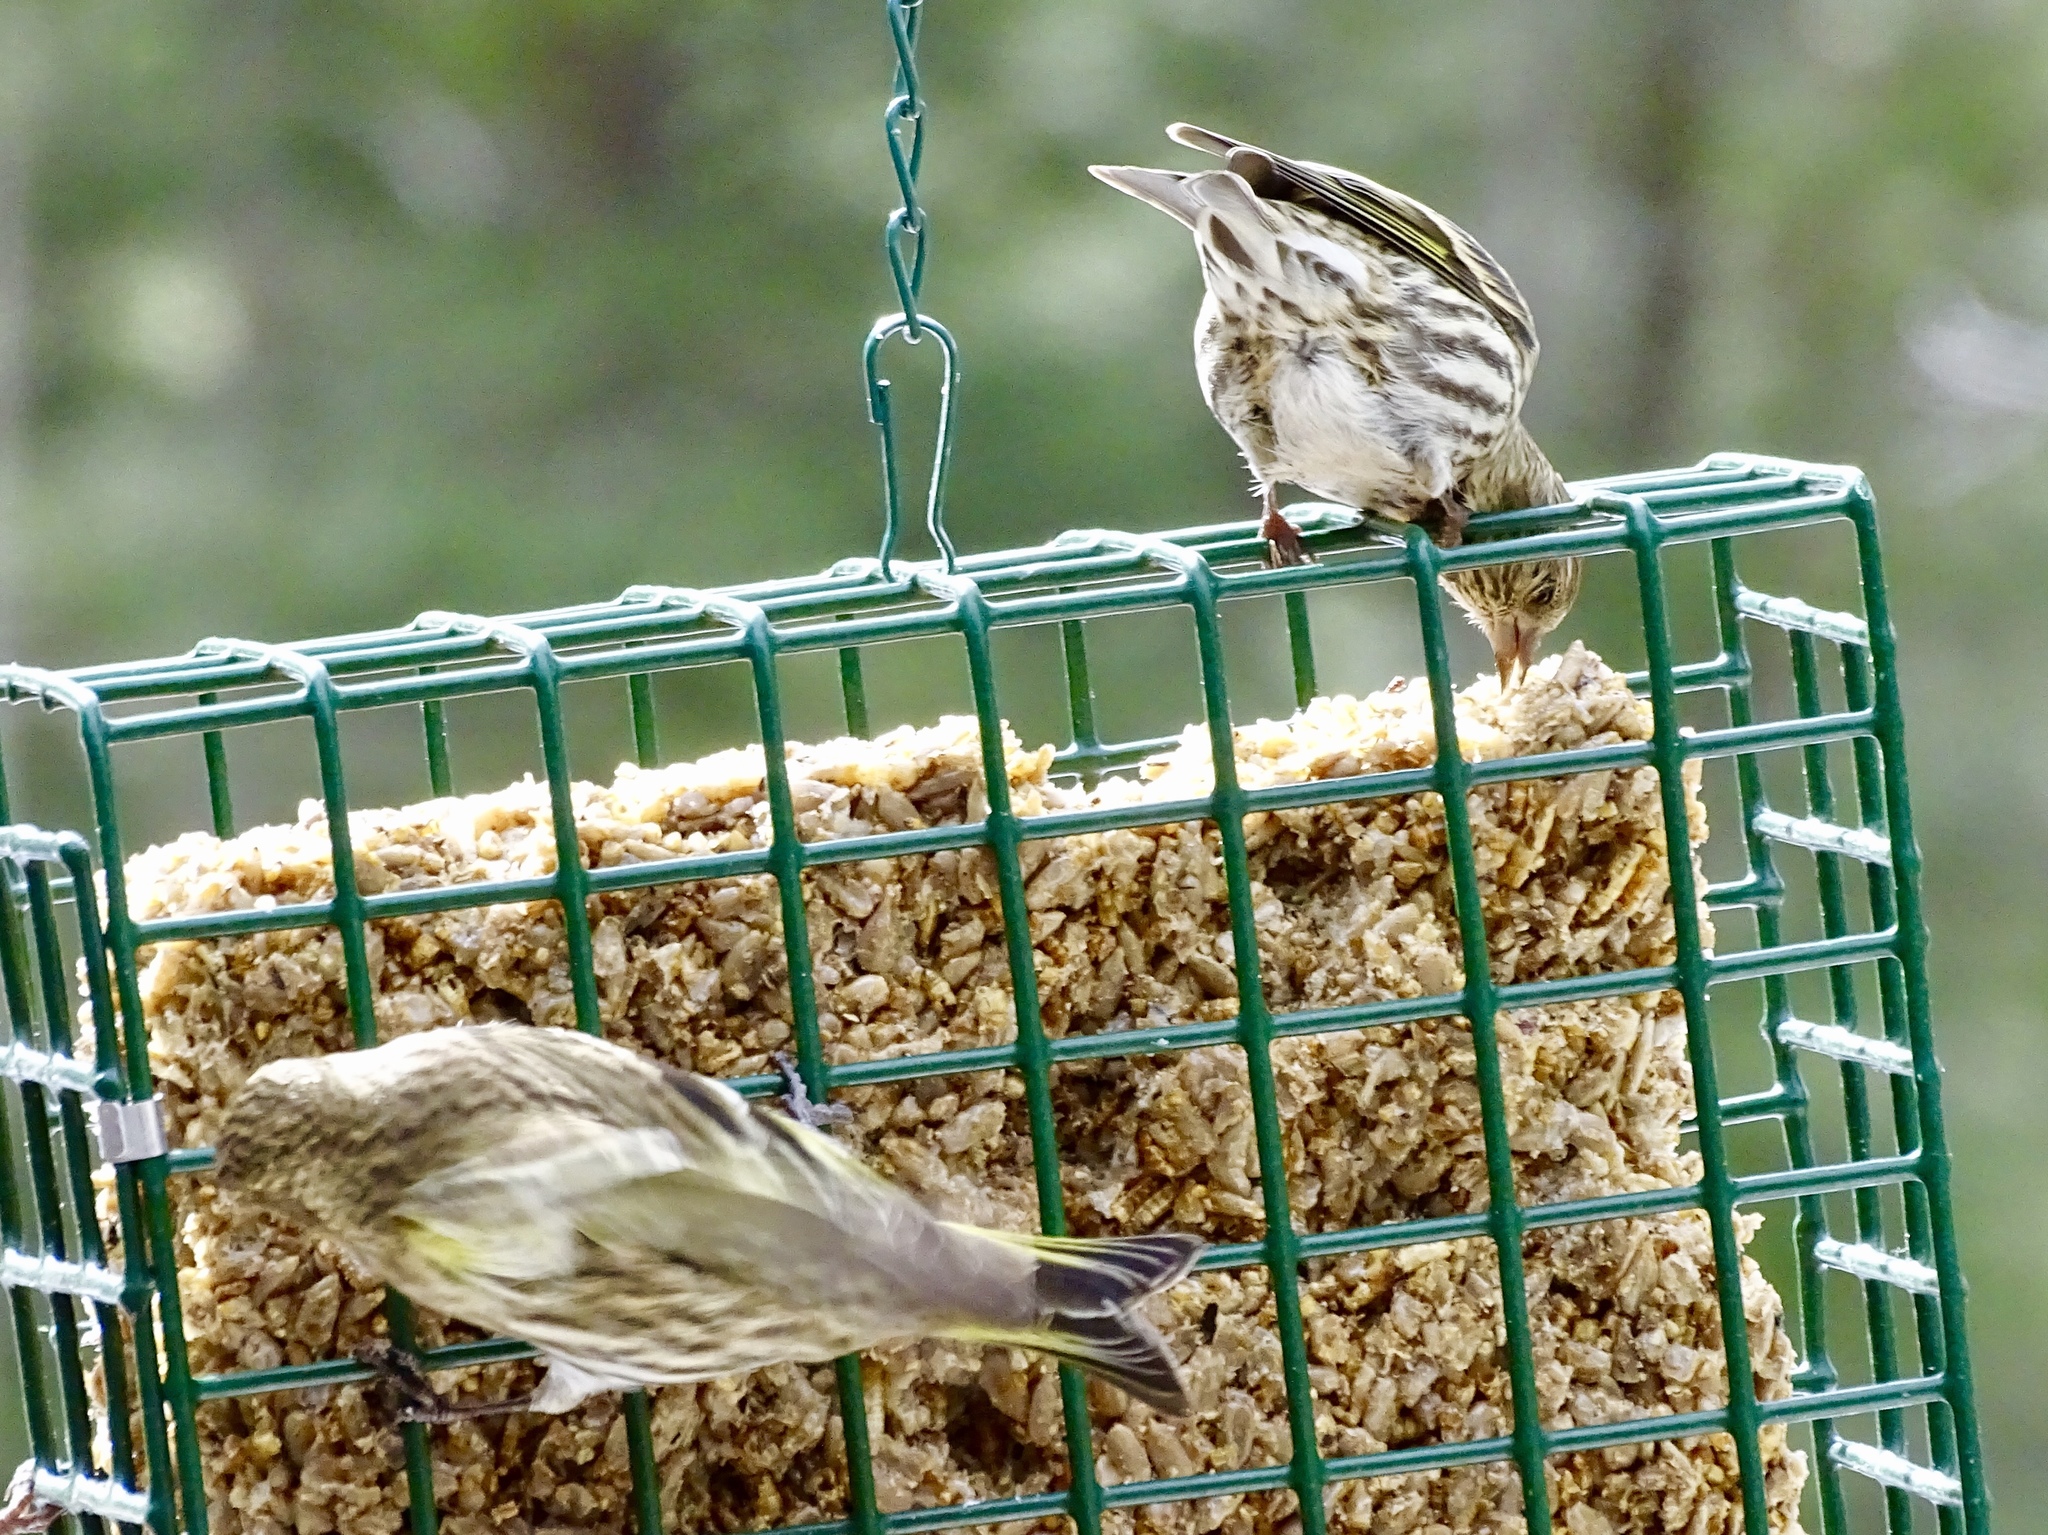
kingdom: Animalia
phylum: Chordata
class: Aves
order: Passeriformes
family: Fringillidae
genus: Spinus
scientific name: Spinus pinus
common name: Pine siskin
